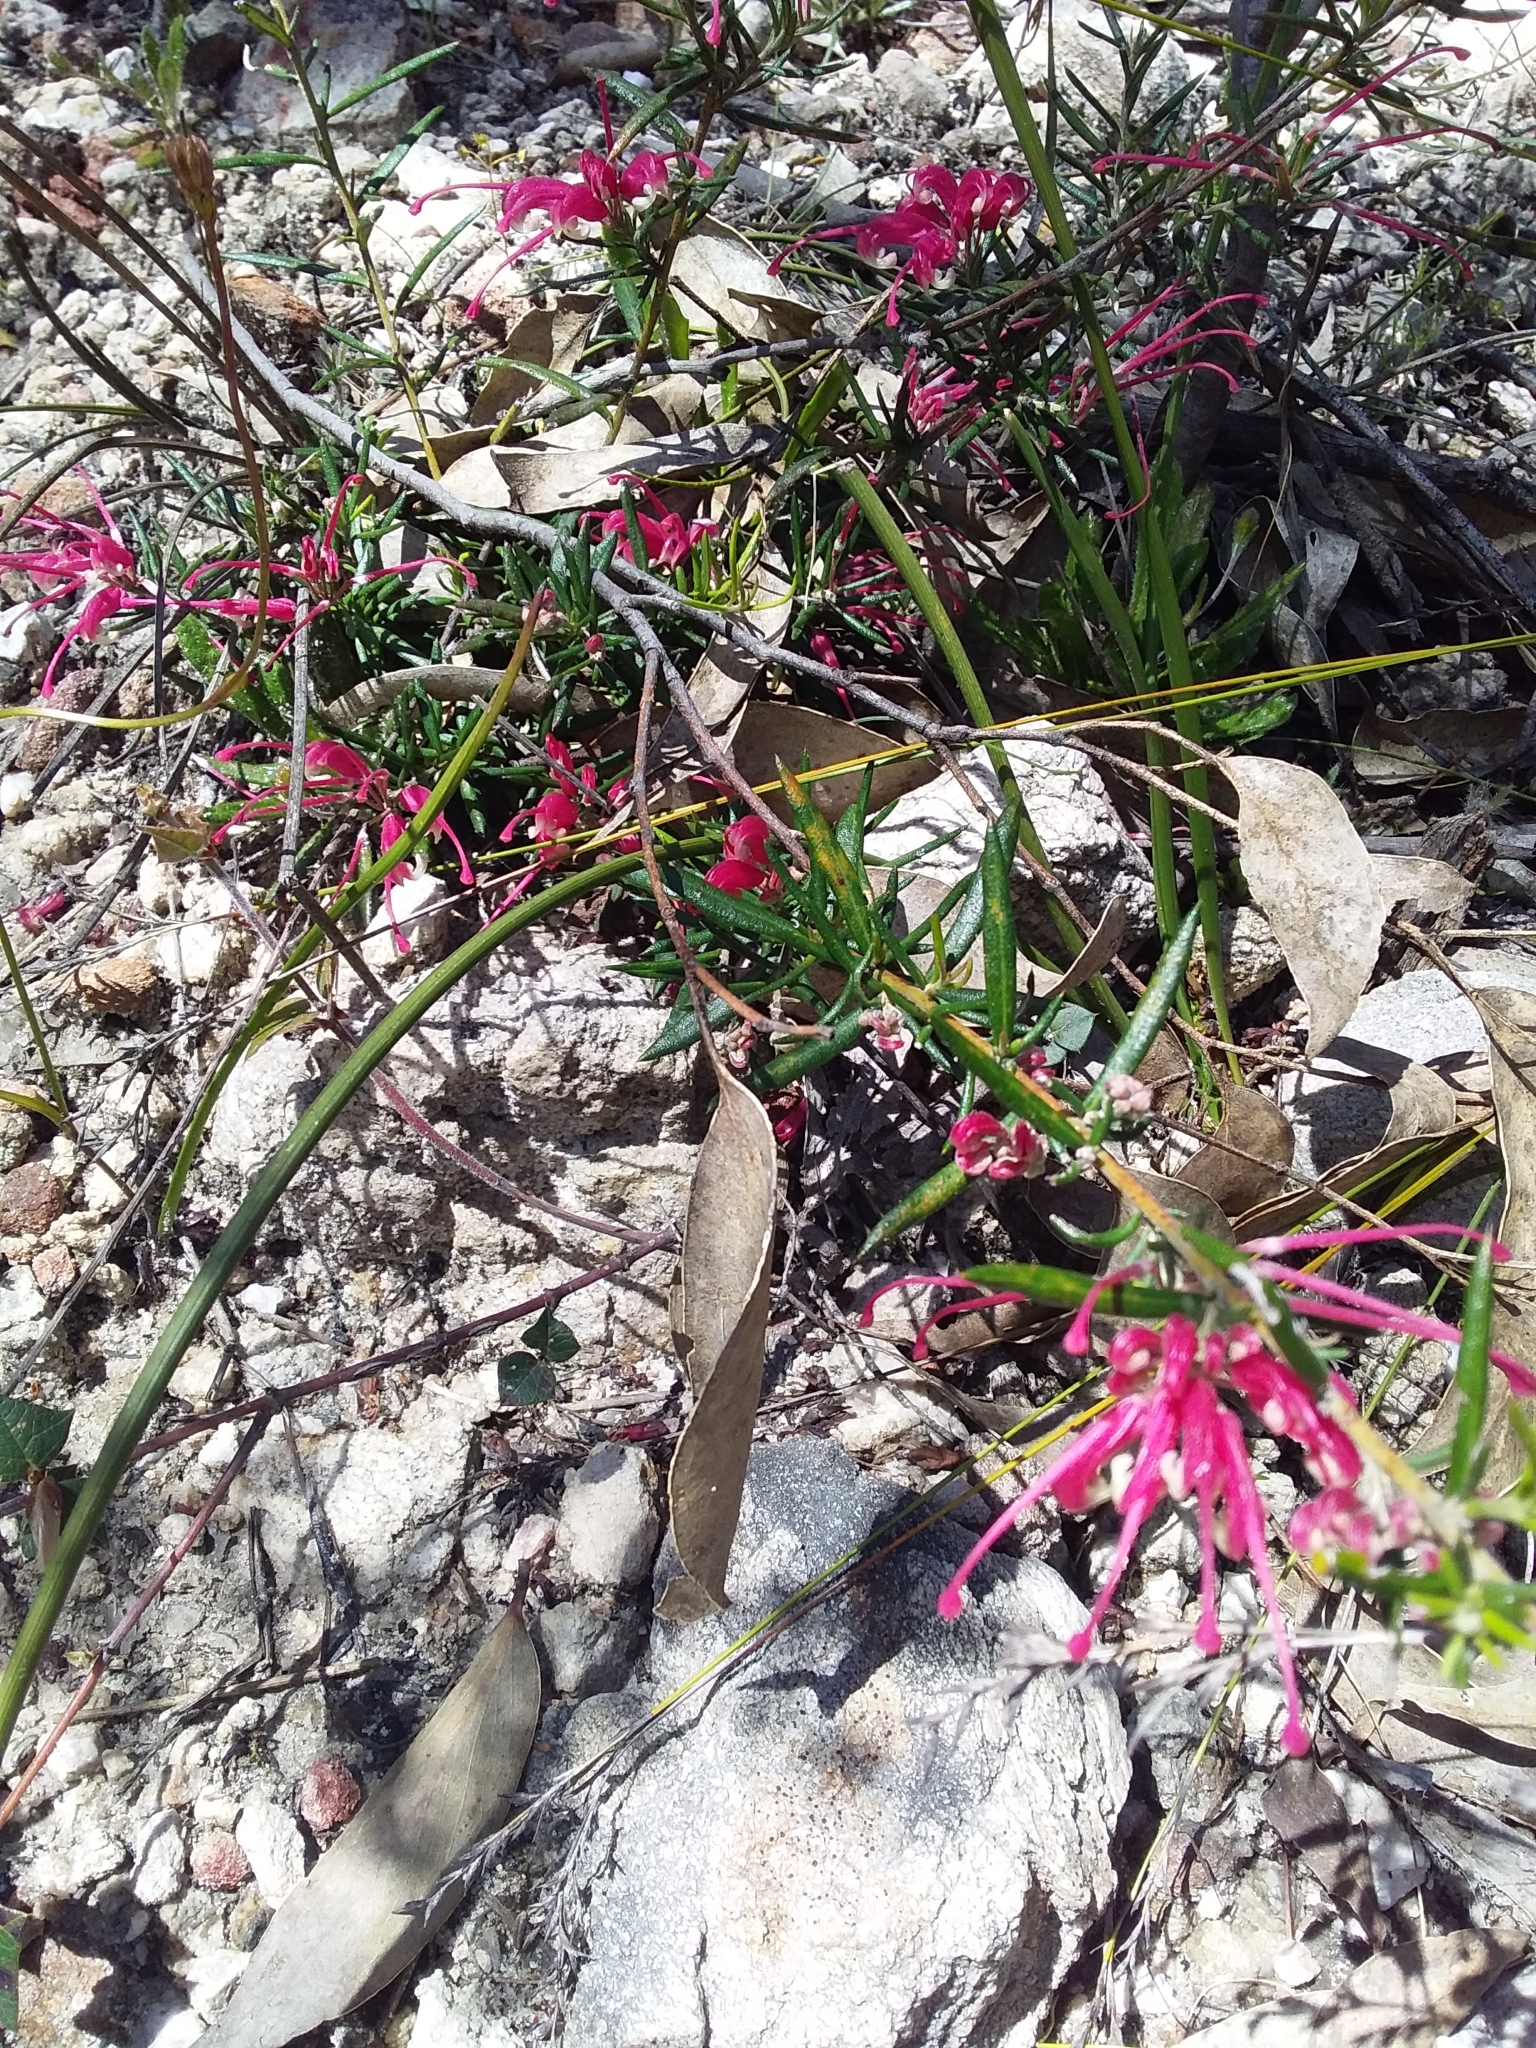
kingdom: Plantae
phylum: Tracheophyta
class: Magnoliopsida
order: Proteales
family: Proteaceae
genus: Grevillea
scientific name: Grevillea lavandulacea
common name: Lavender grevillea
